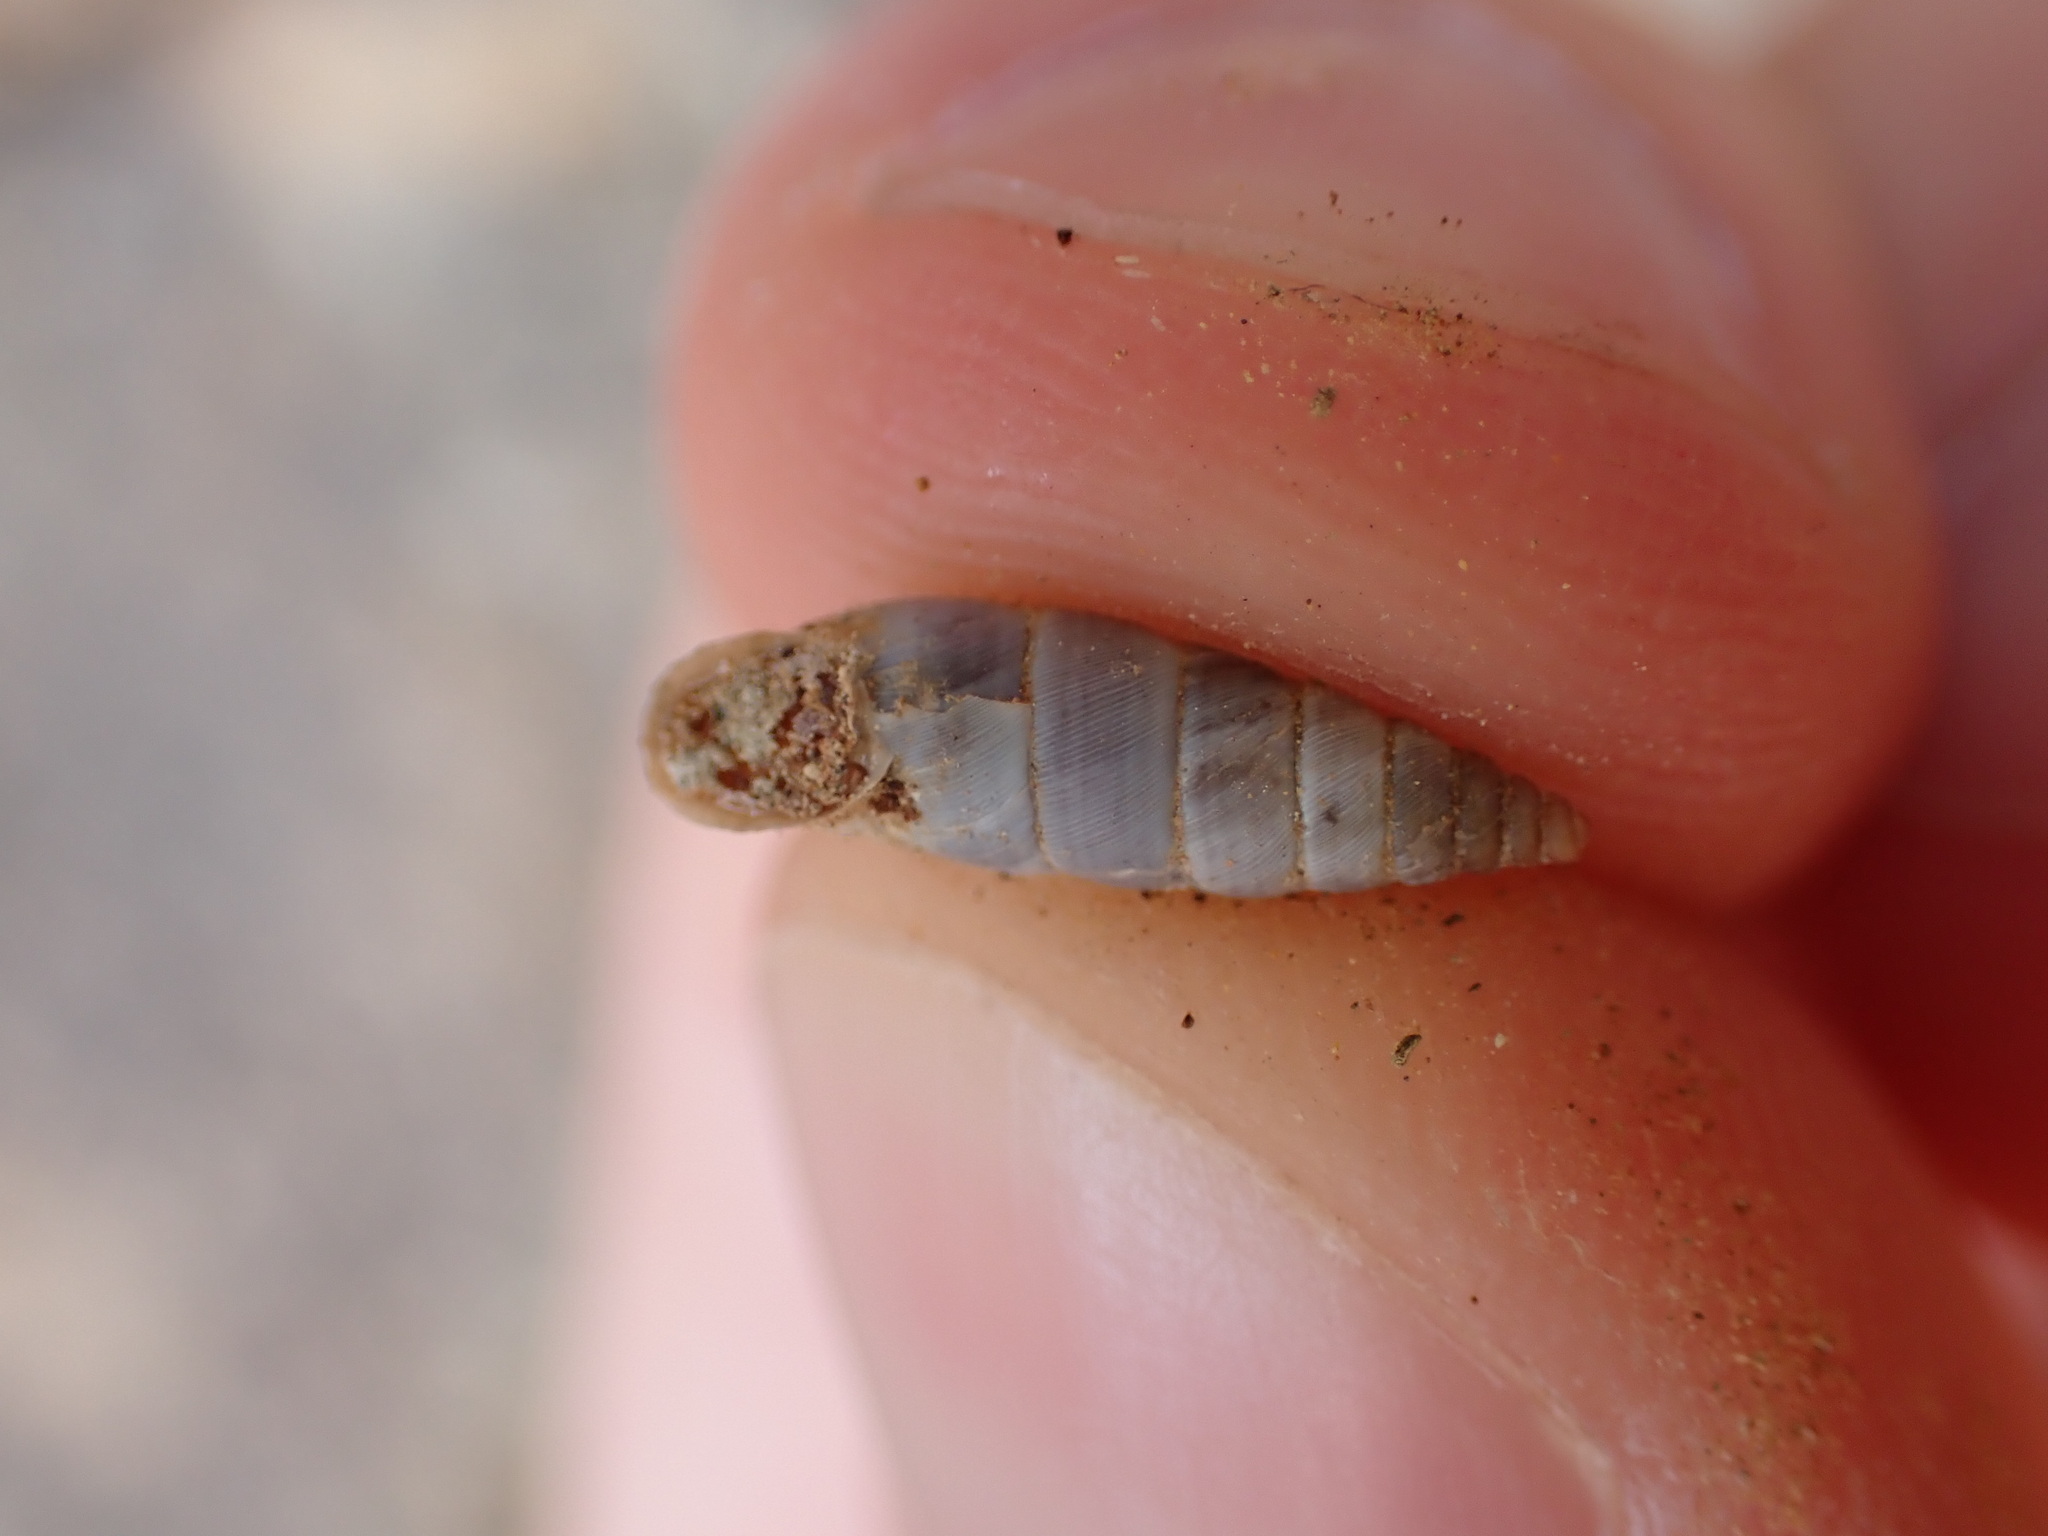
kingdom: Animalia
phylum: Mollusca
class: Gastropoda
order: Stylommatophora
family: Chondrinidae
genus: Solatopupa
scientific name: Solatopupa similis
